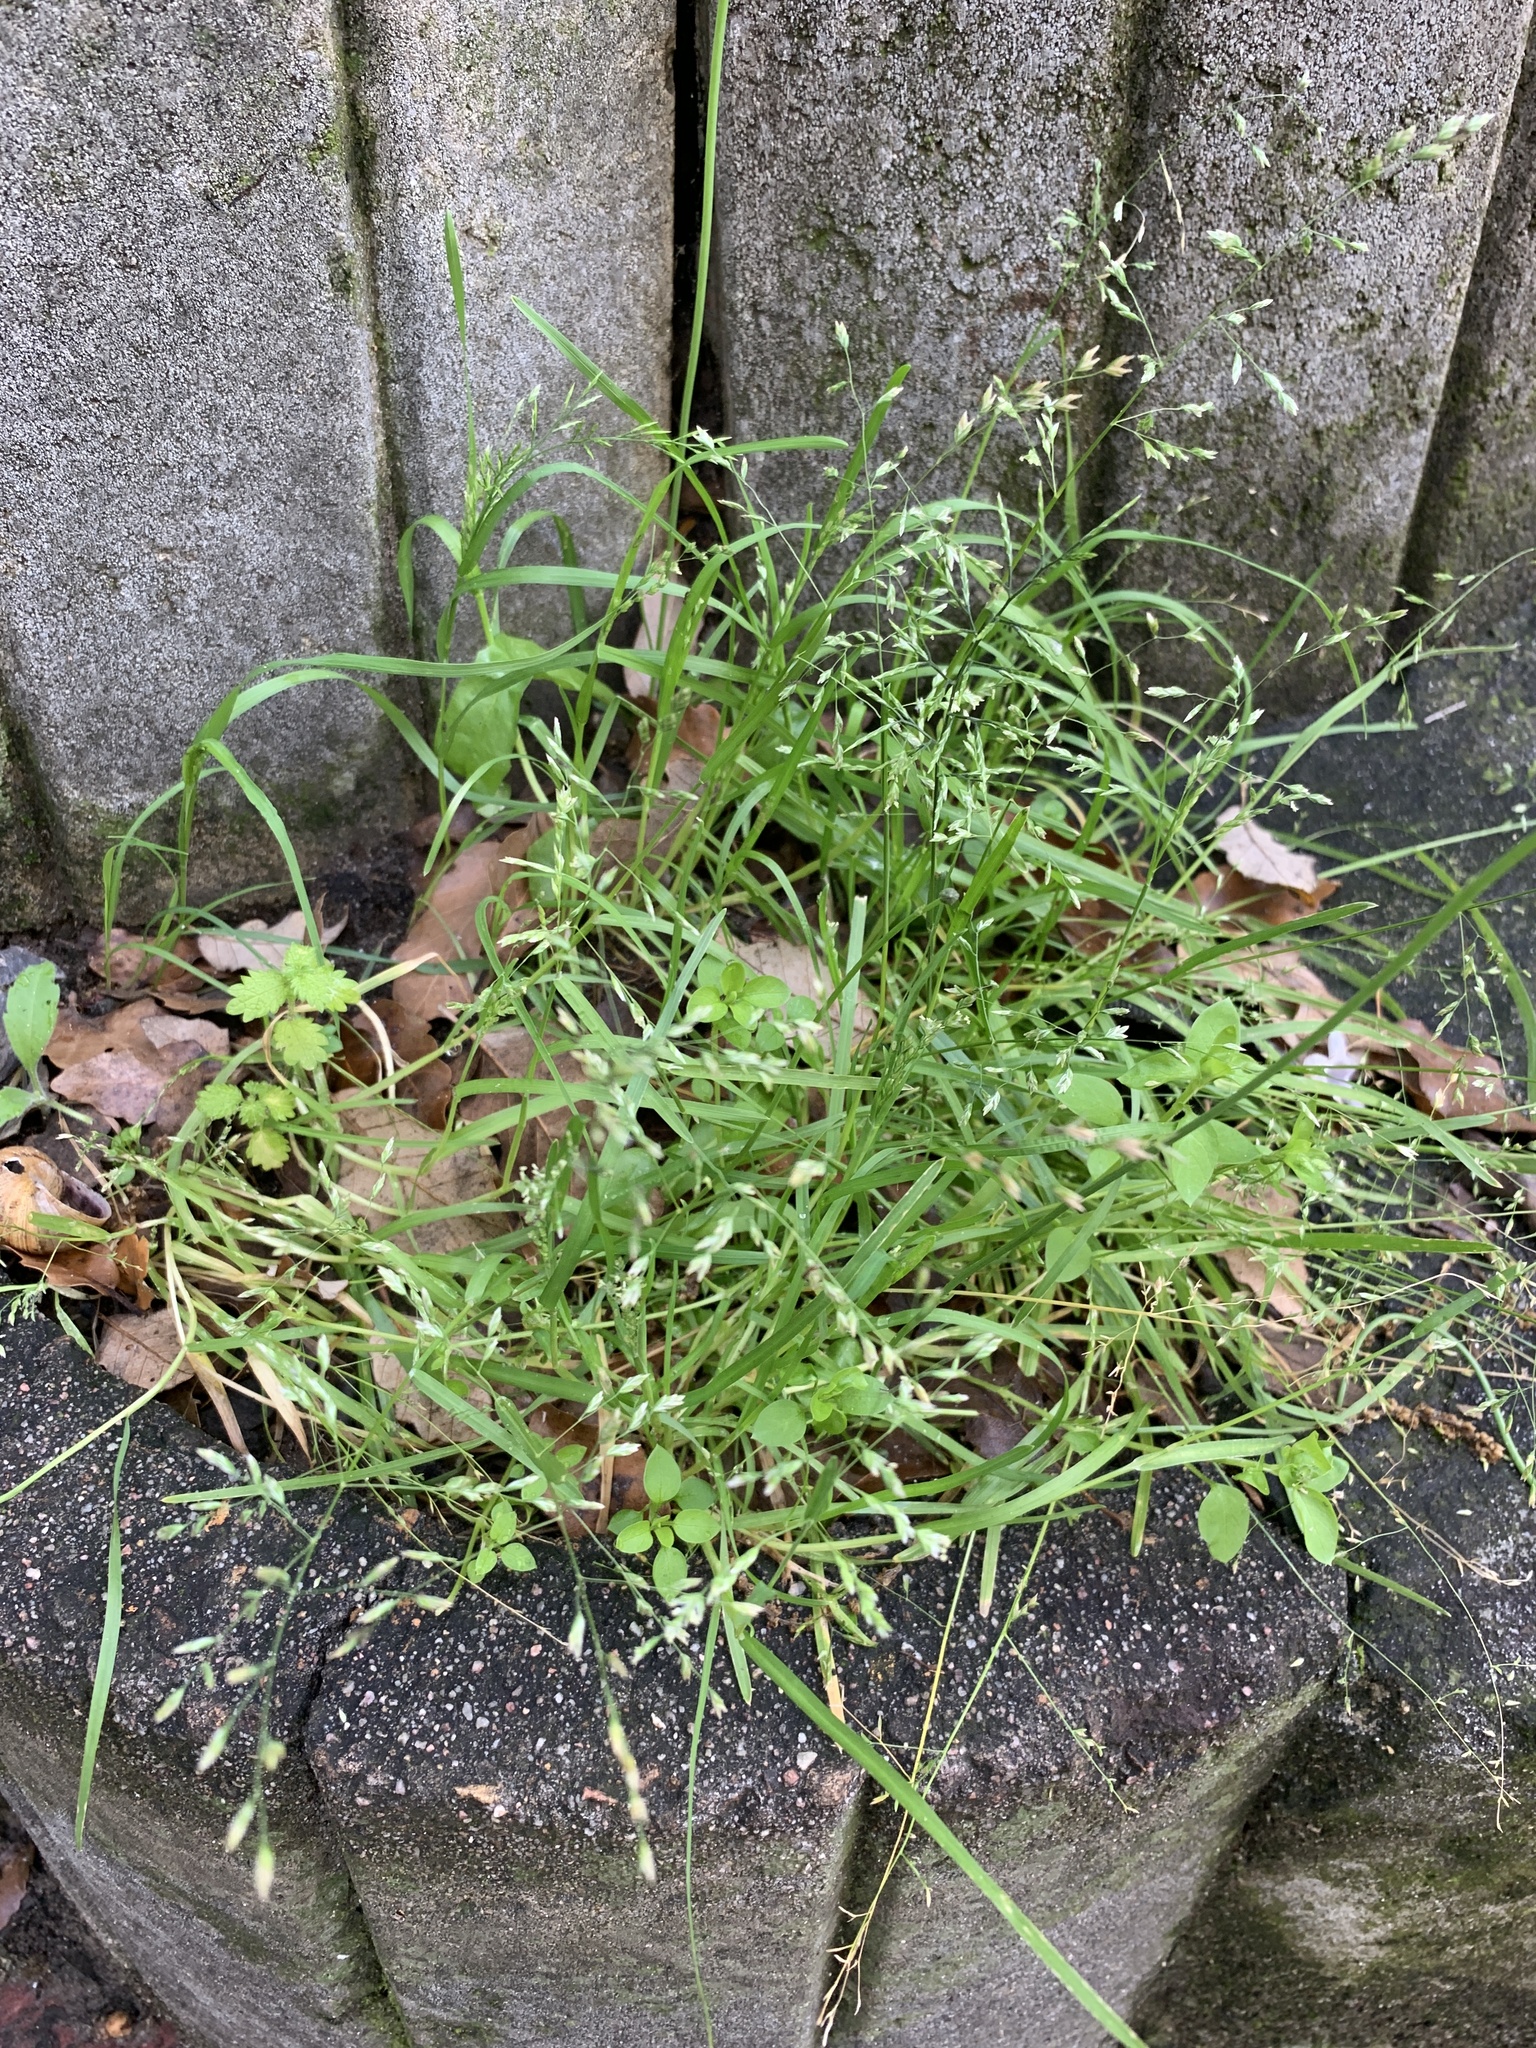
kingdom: Plantae
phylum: Tracheophyta
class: Liliopsida
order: Poales
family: Poaceae
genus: Poa
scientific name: Poa annua
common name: Annual bluegrass
